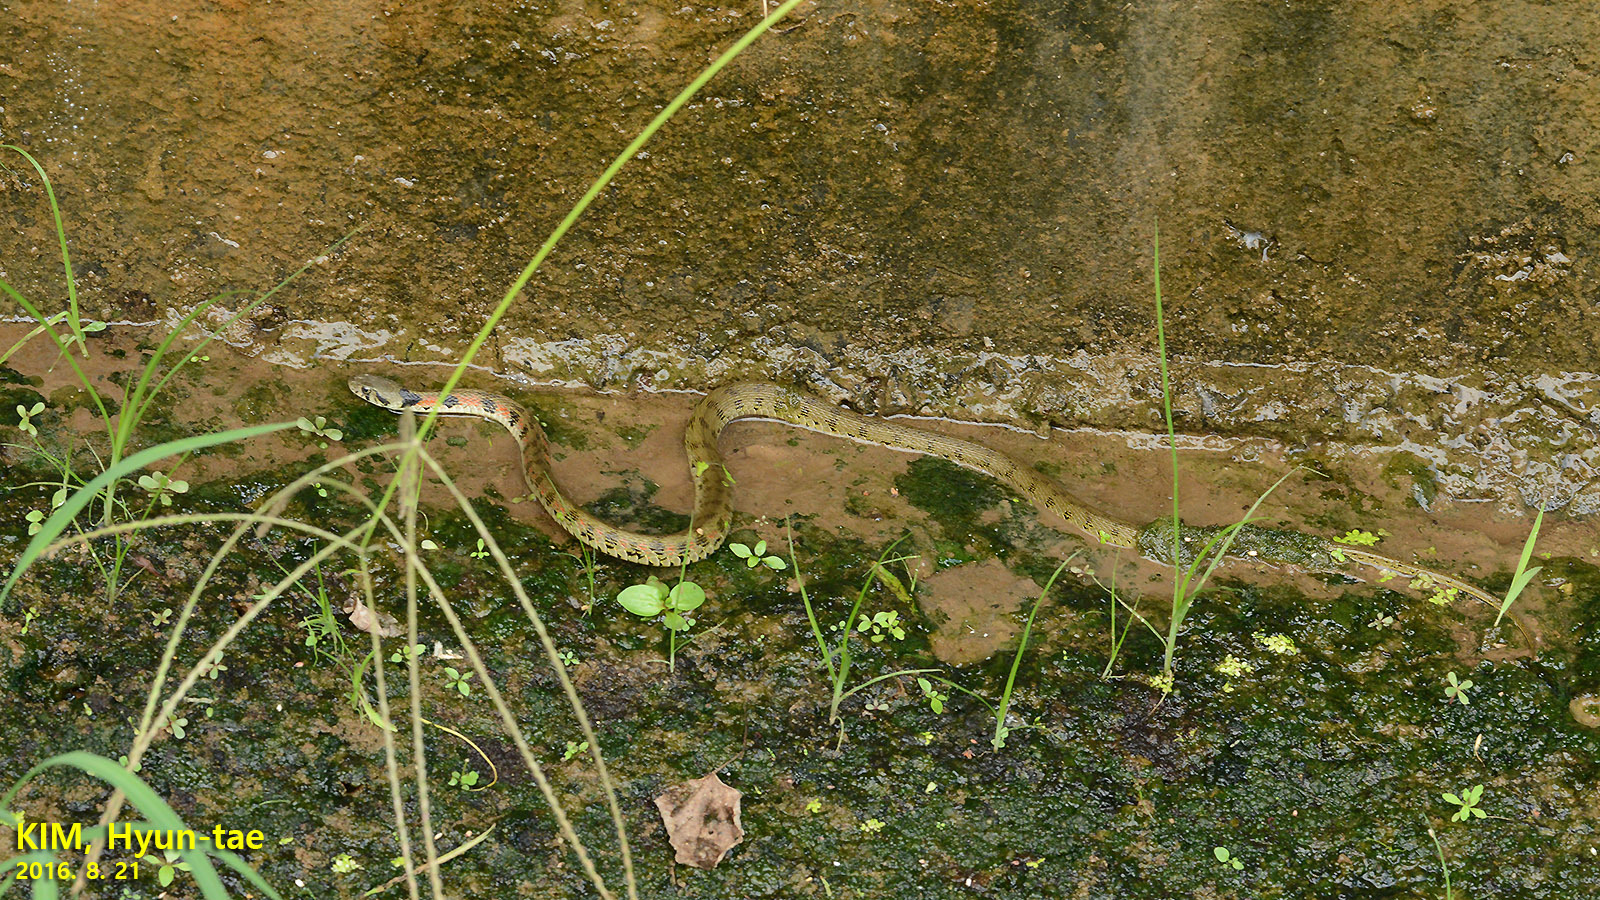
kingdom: Animalia
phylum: Chordata
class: Squamata
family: Colubridae
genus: Rhabdophis
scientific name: Rhabdophis tigrinus
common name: Tiger keelback
